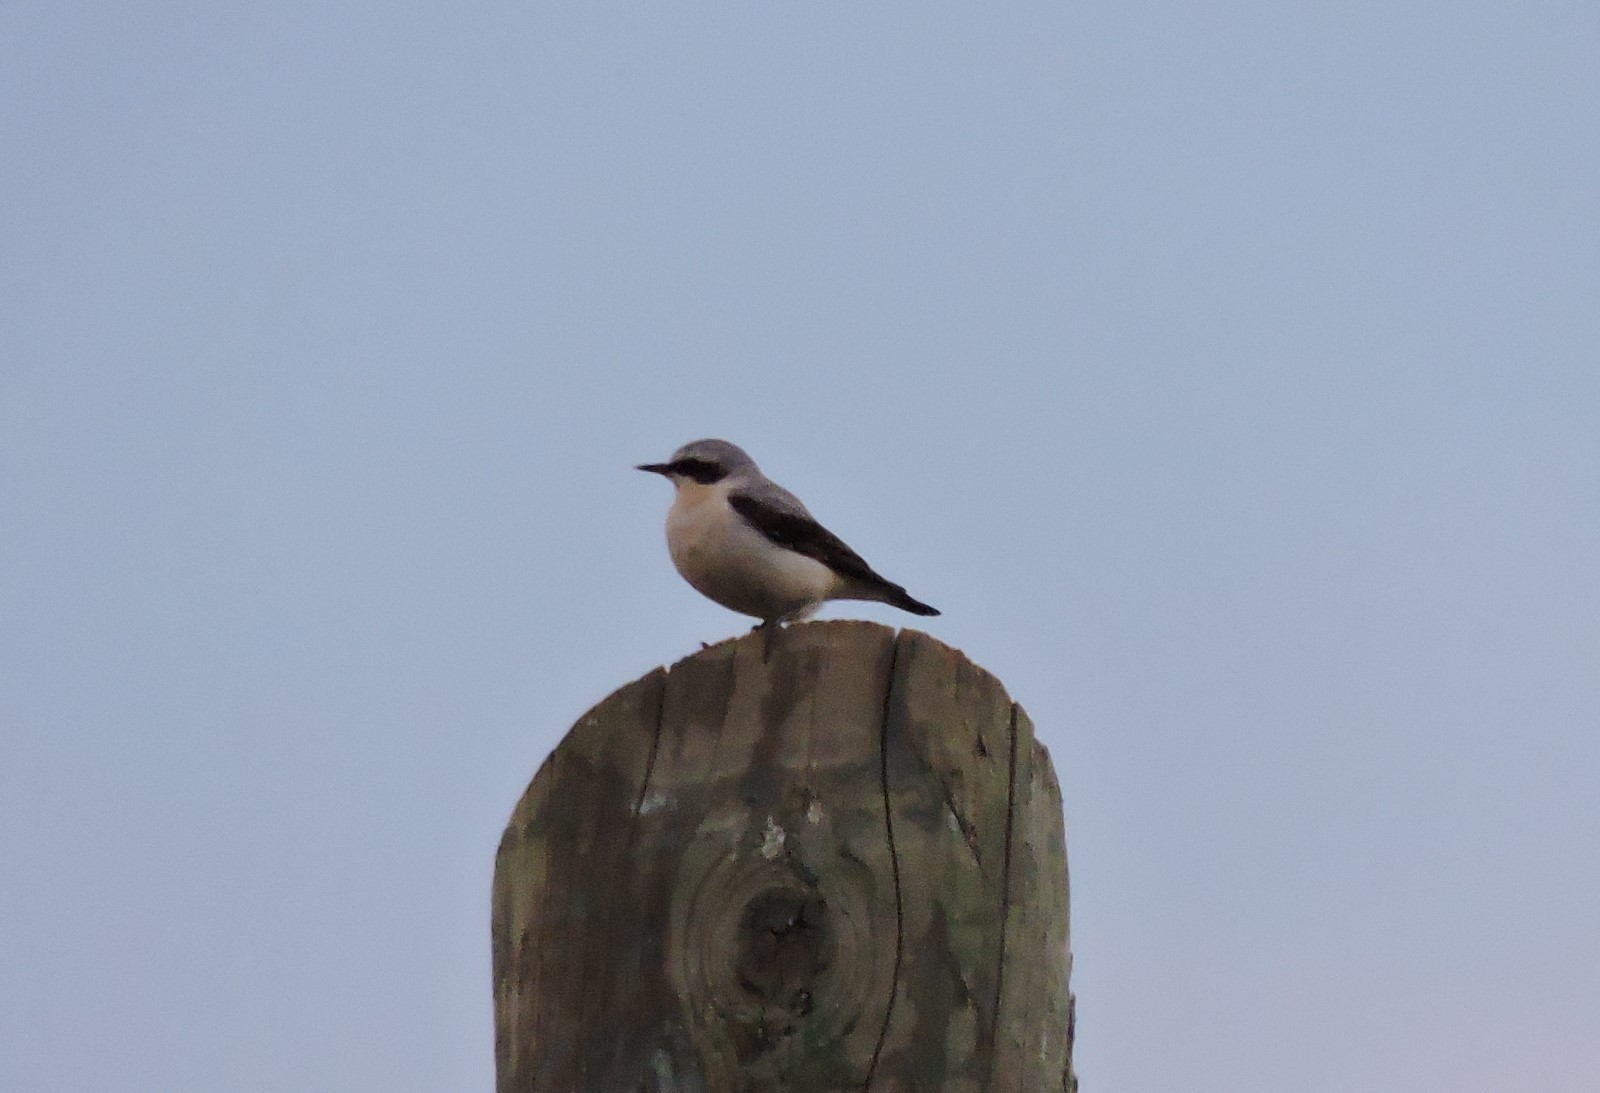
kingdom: Animalia
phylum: Chordata
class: Aves
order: Passeriformes
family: Muscicapidae
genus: Oenanthe
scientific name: Oenanthe oenanthe
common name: Northern wheatear
